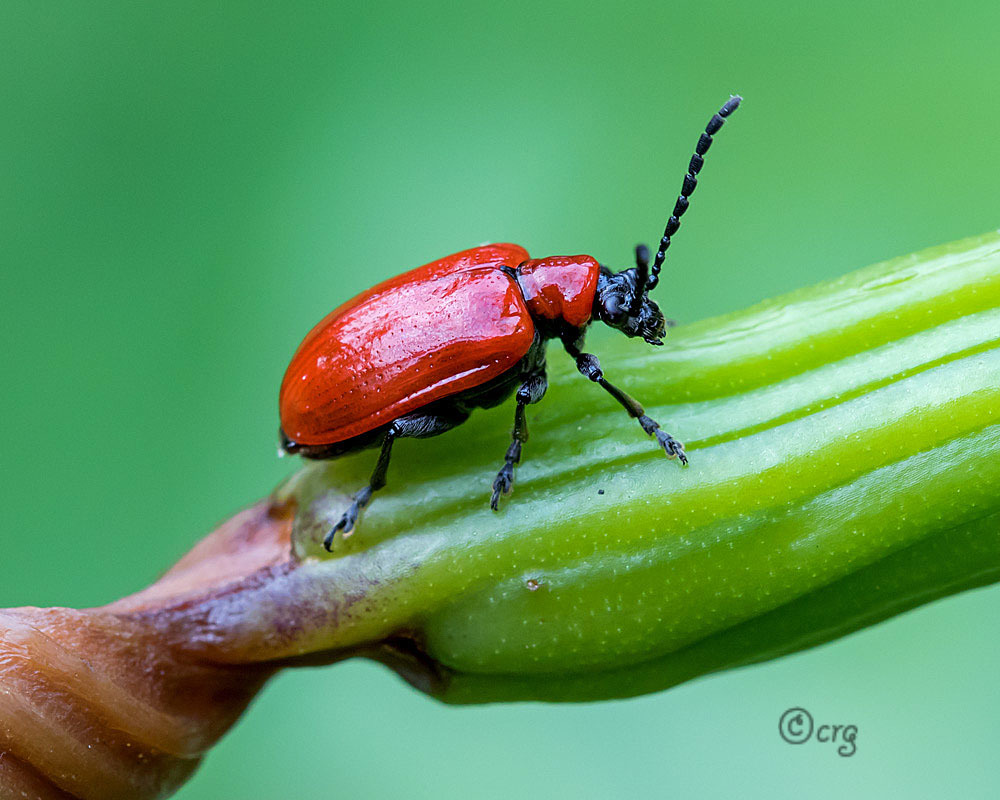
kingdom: Animalia
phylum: Arthropoda
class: Insecta
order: Coleoptera
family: Chrysomelidae
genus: Lilioceris
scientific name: Lilioceris lilii
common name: Lily beetle
